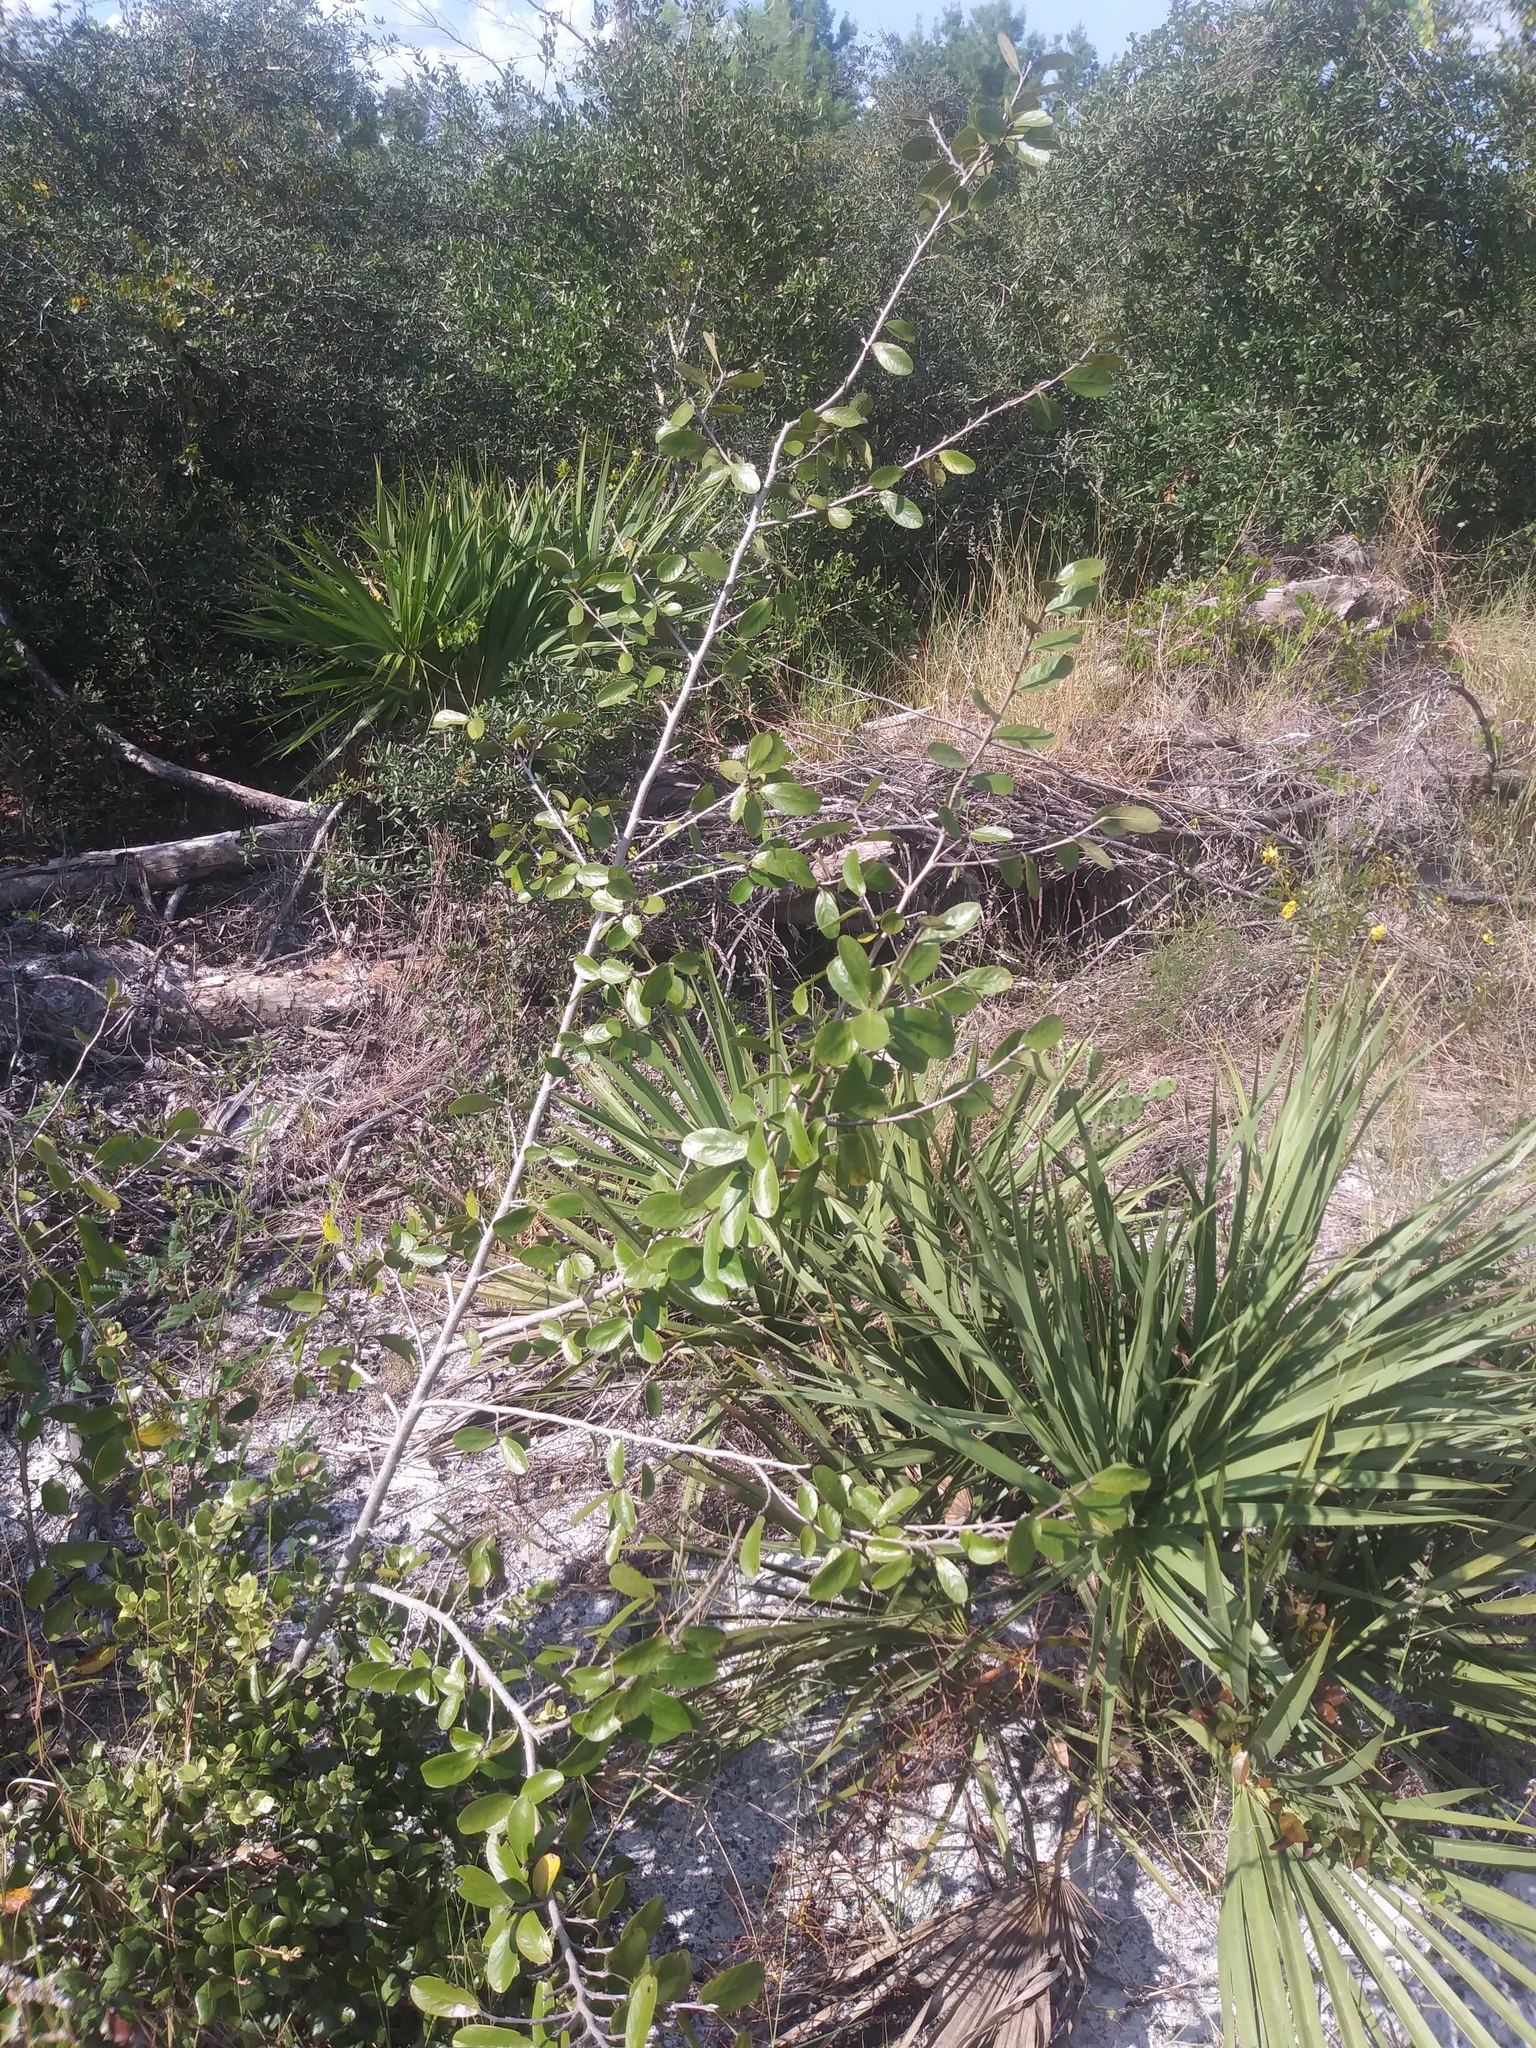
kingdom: Plantae
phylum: Tracheophyta
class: Magnoliopsida
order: Magnoliales
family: Annonaceae
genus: Asimina
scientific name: Asimina obovata
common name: Flag pawpaw
